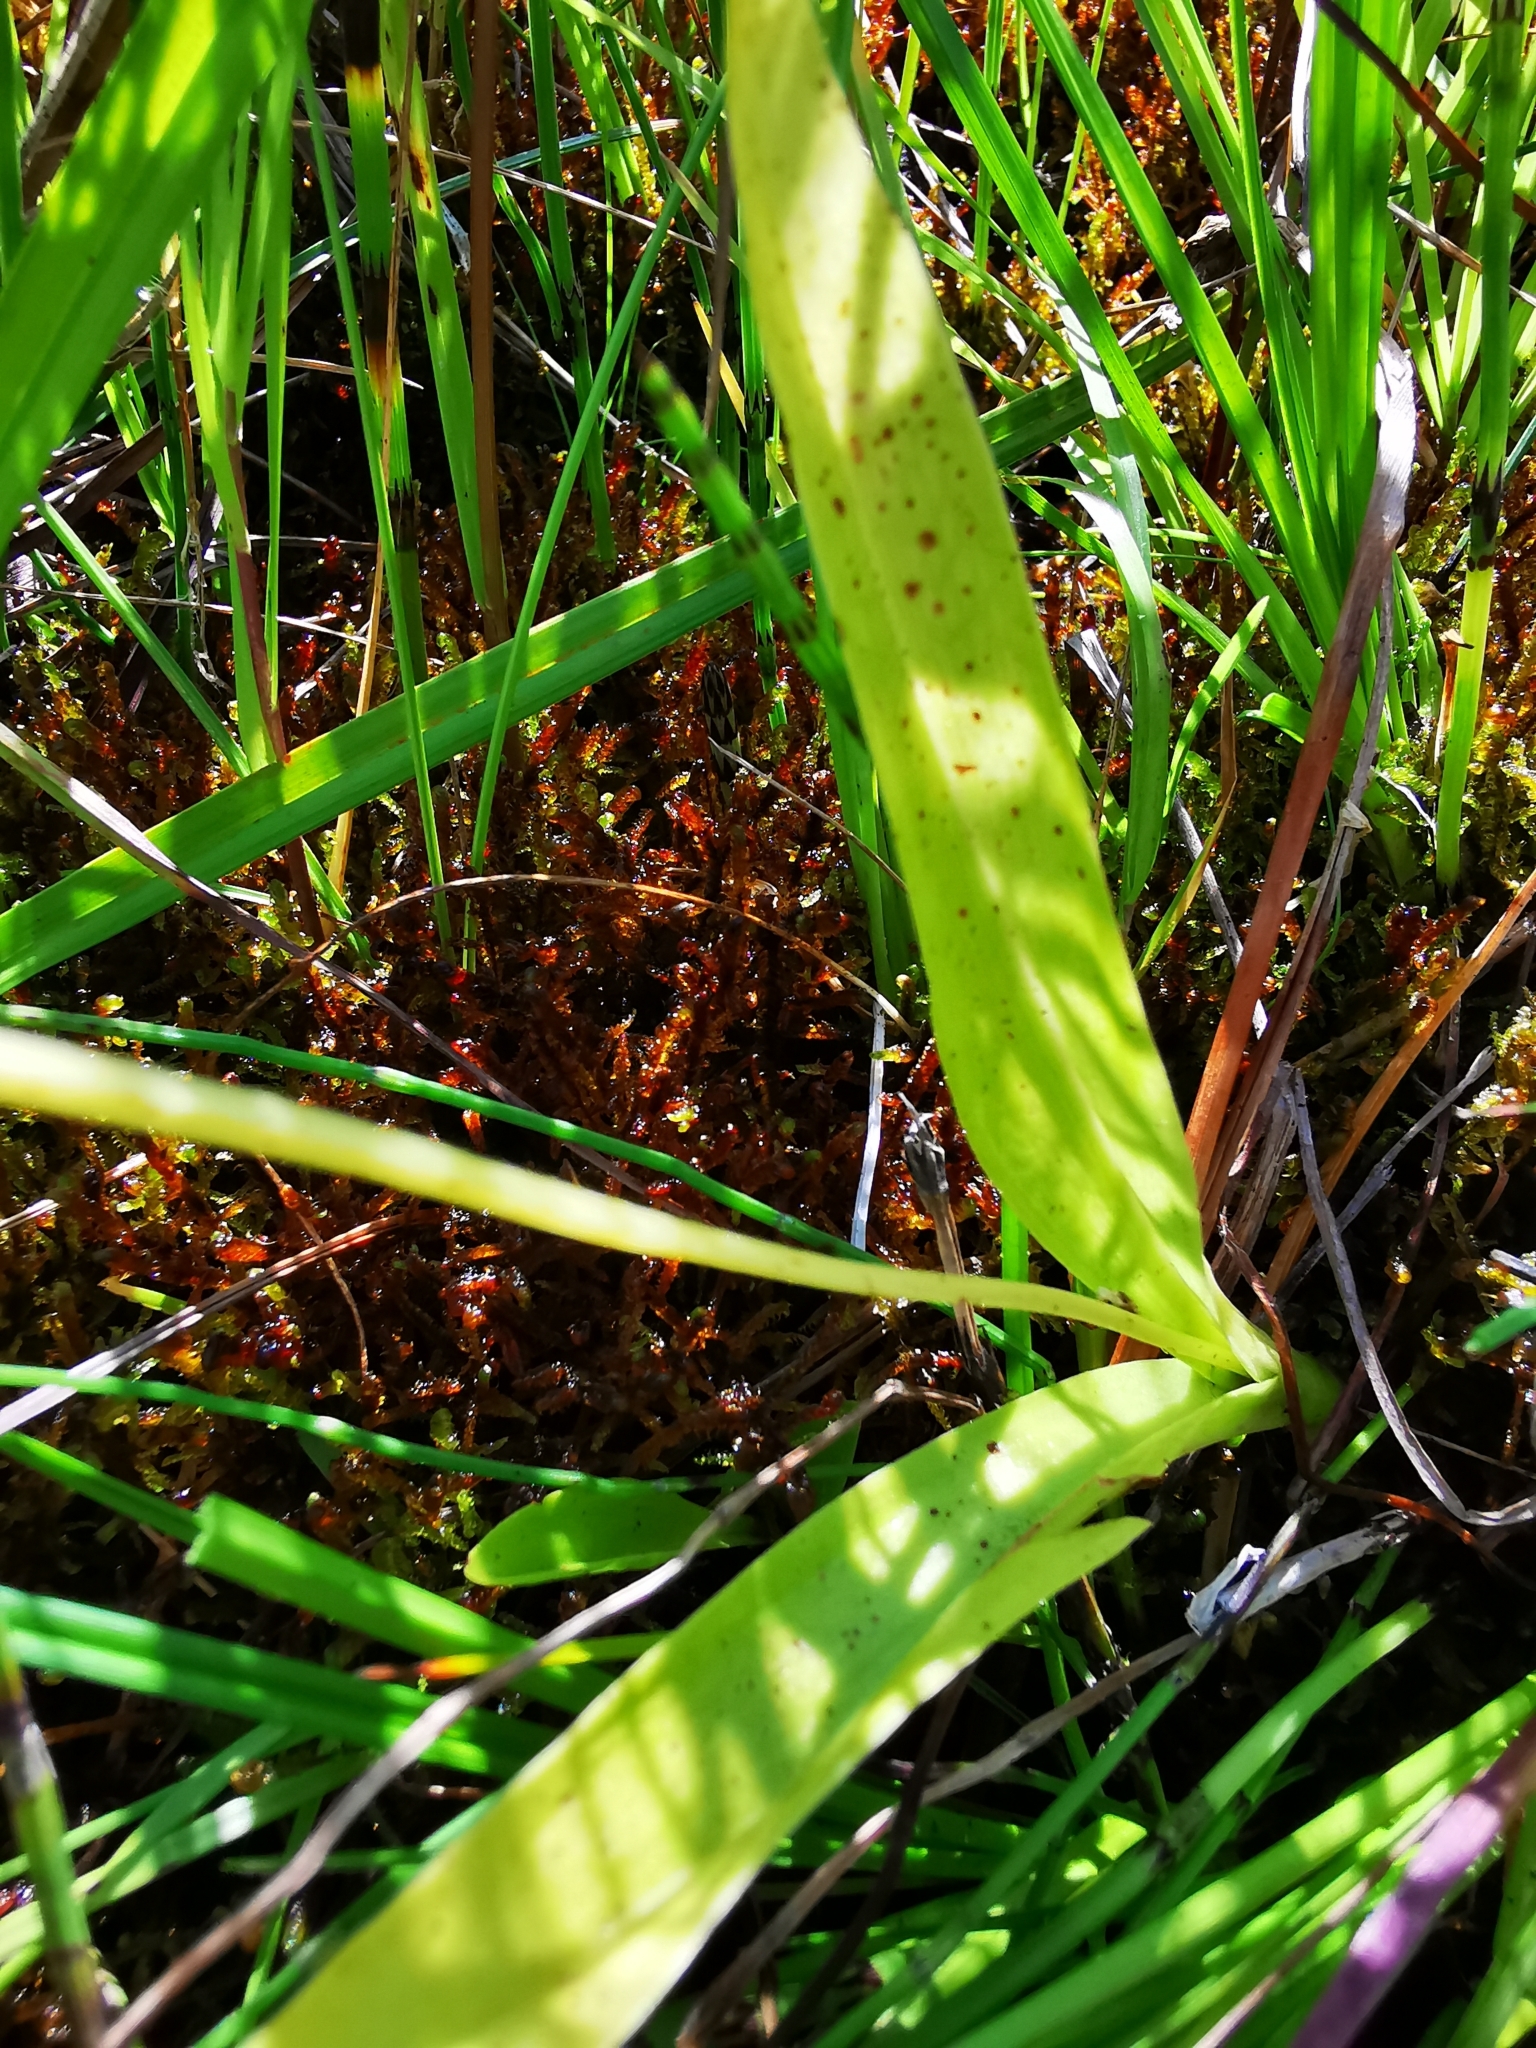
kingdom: Animalia
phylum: Arthropoda
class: Insecta
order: Coleoptera
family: Curculionidae
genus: Liparis
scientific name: Liparis loeselii
